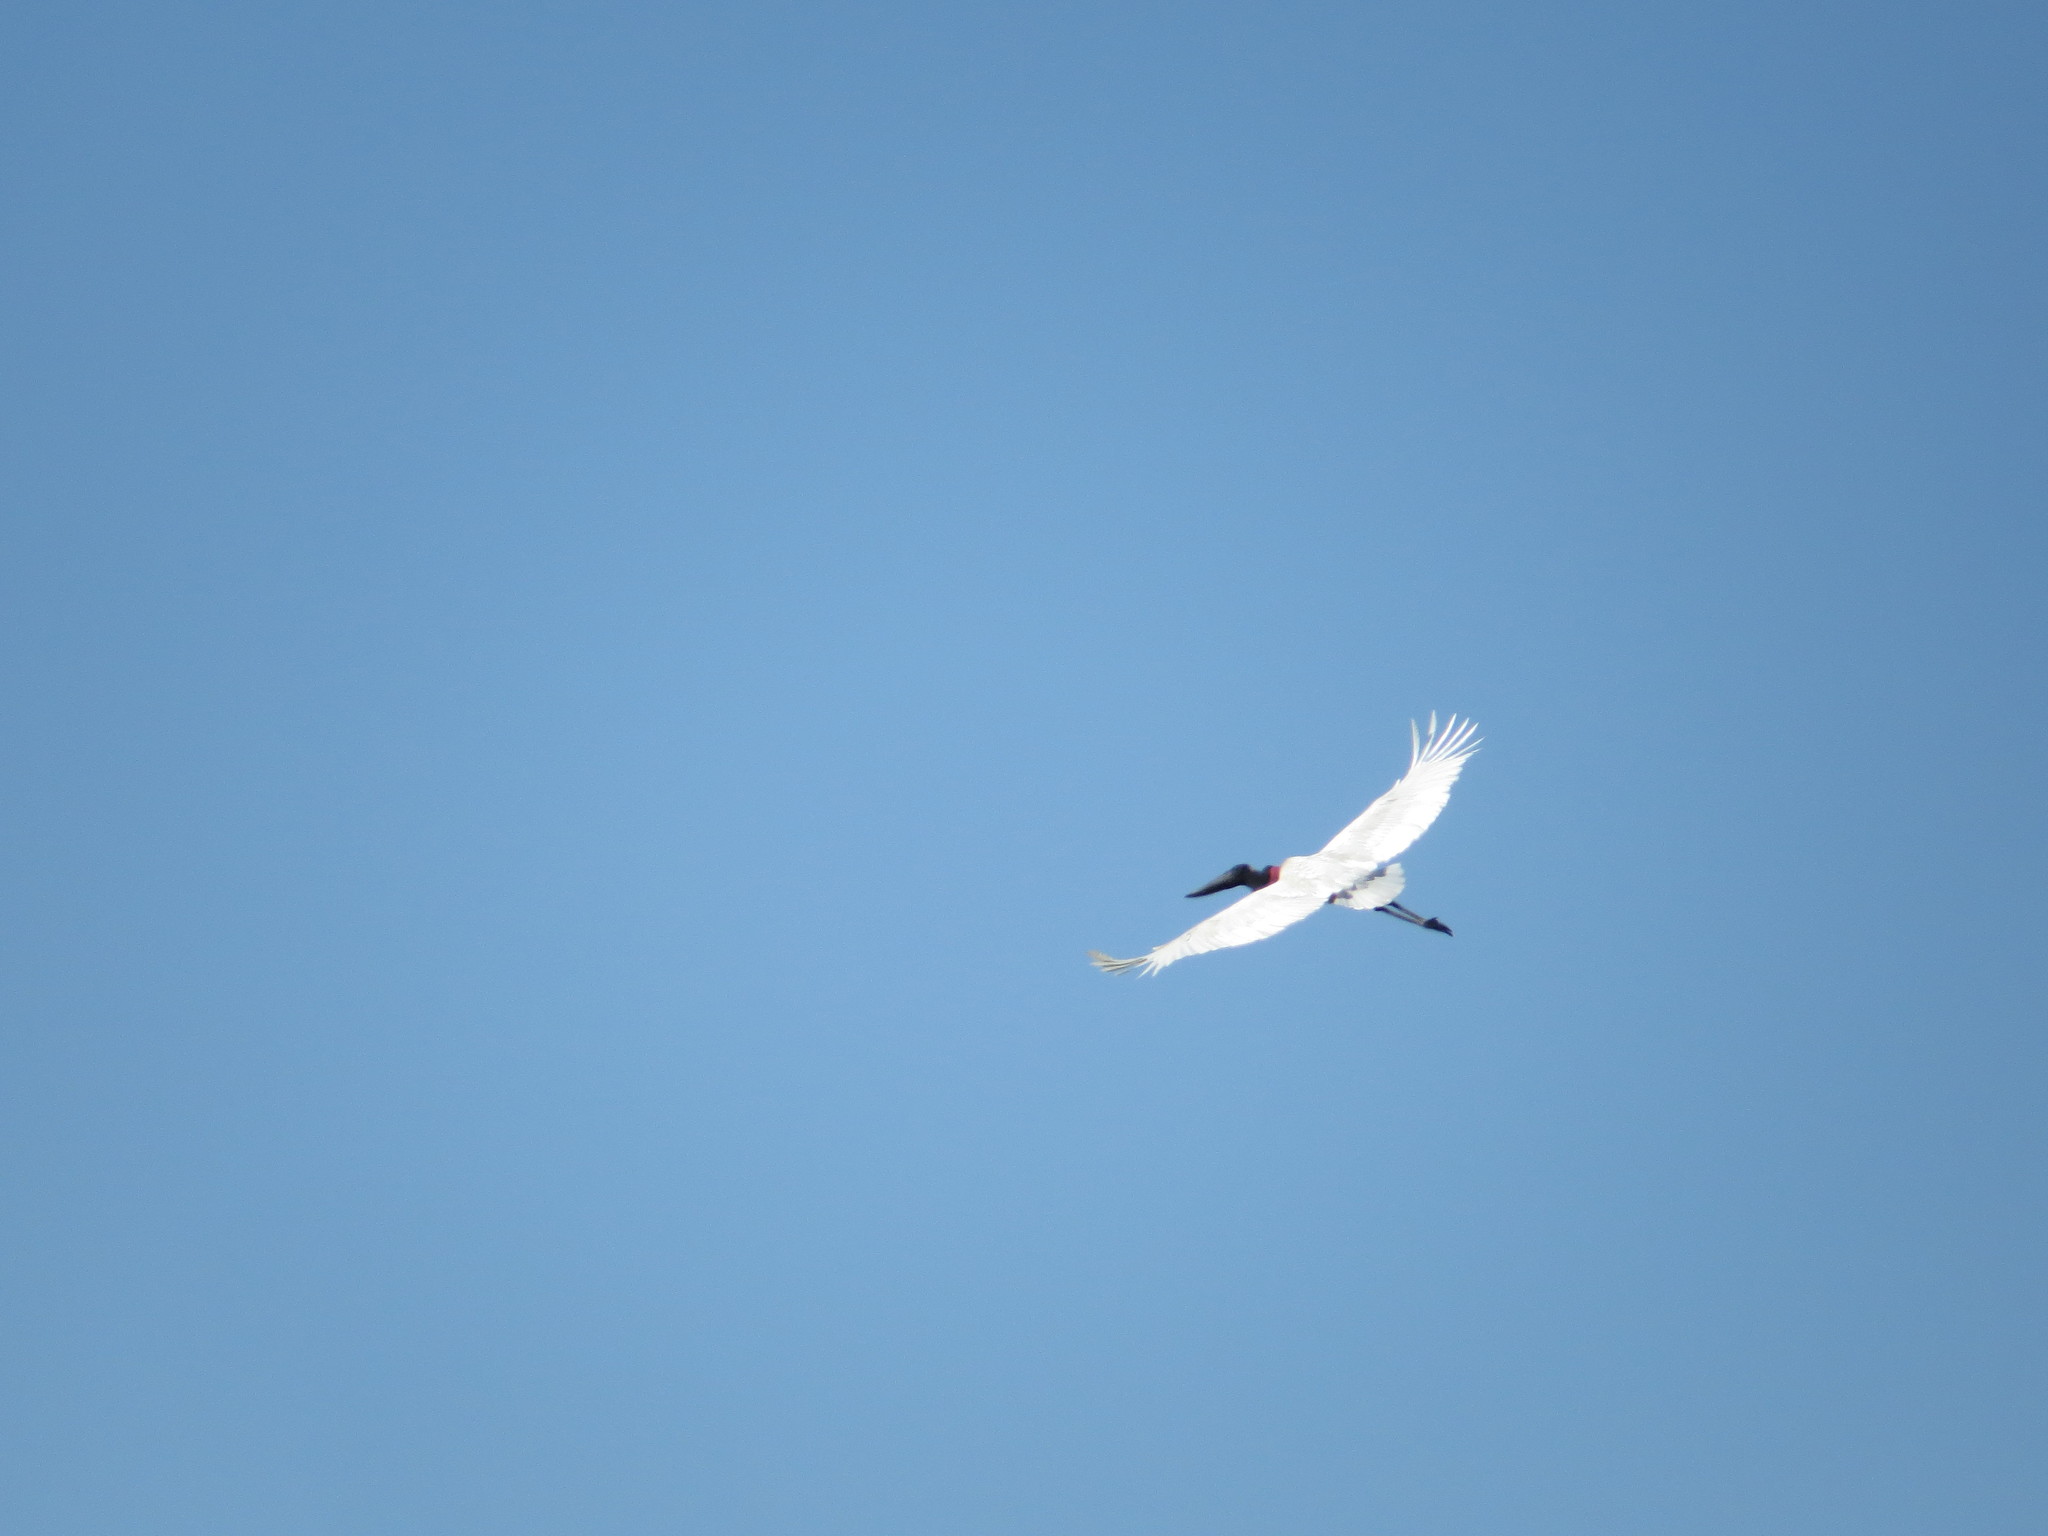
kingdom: Animalia
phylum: Chordata
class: Aves
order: Ciconiiformes
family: Ciconiidae
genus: Jabiru
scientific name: Jabiru mycteria
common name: Jabiru
